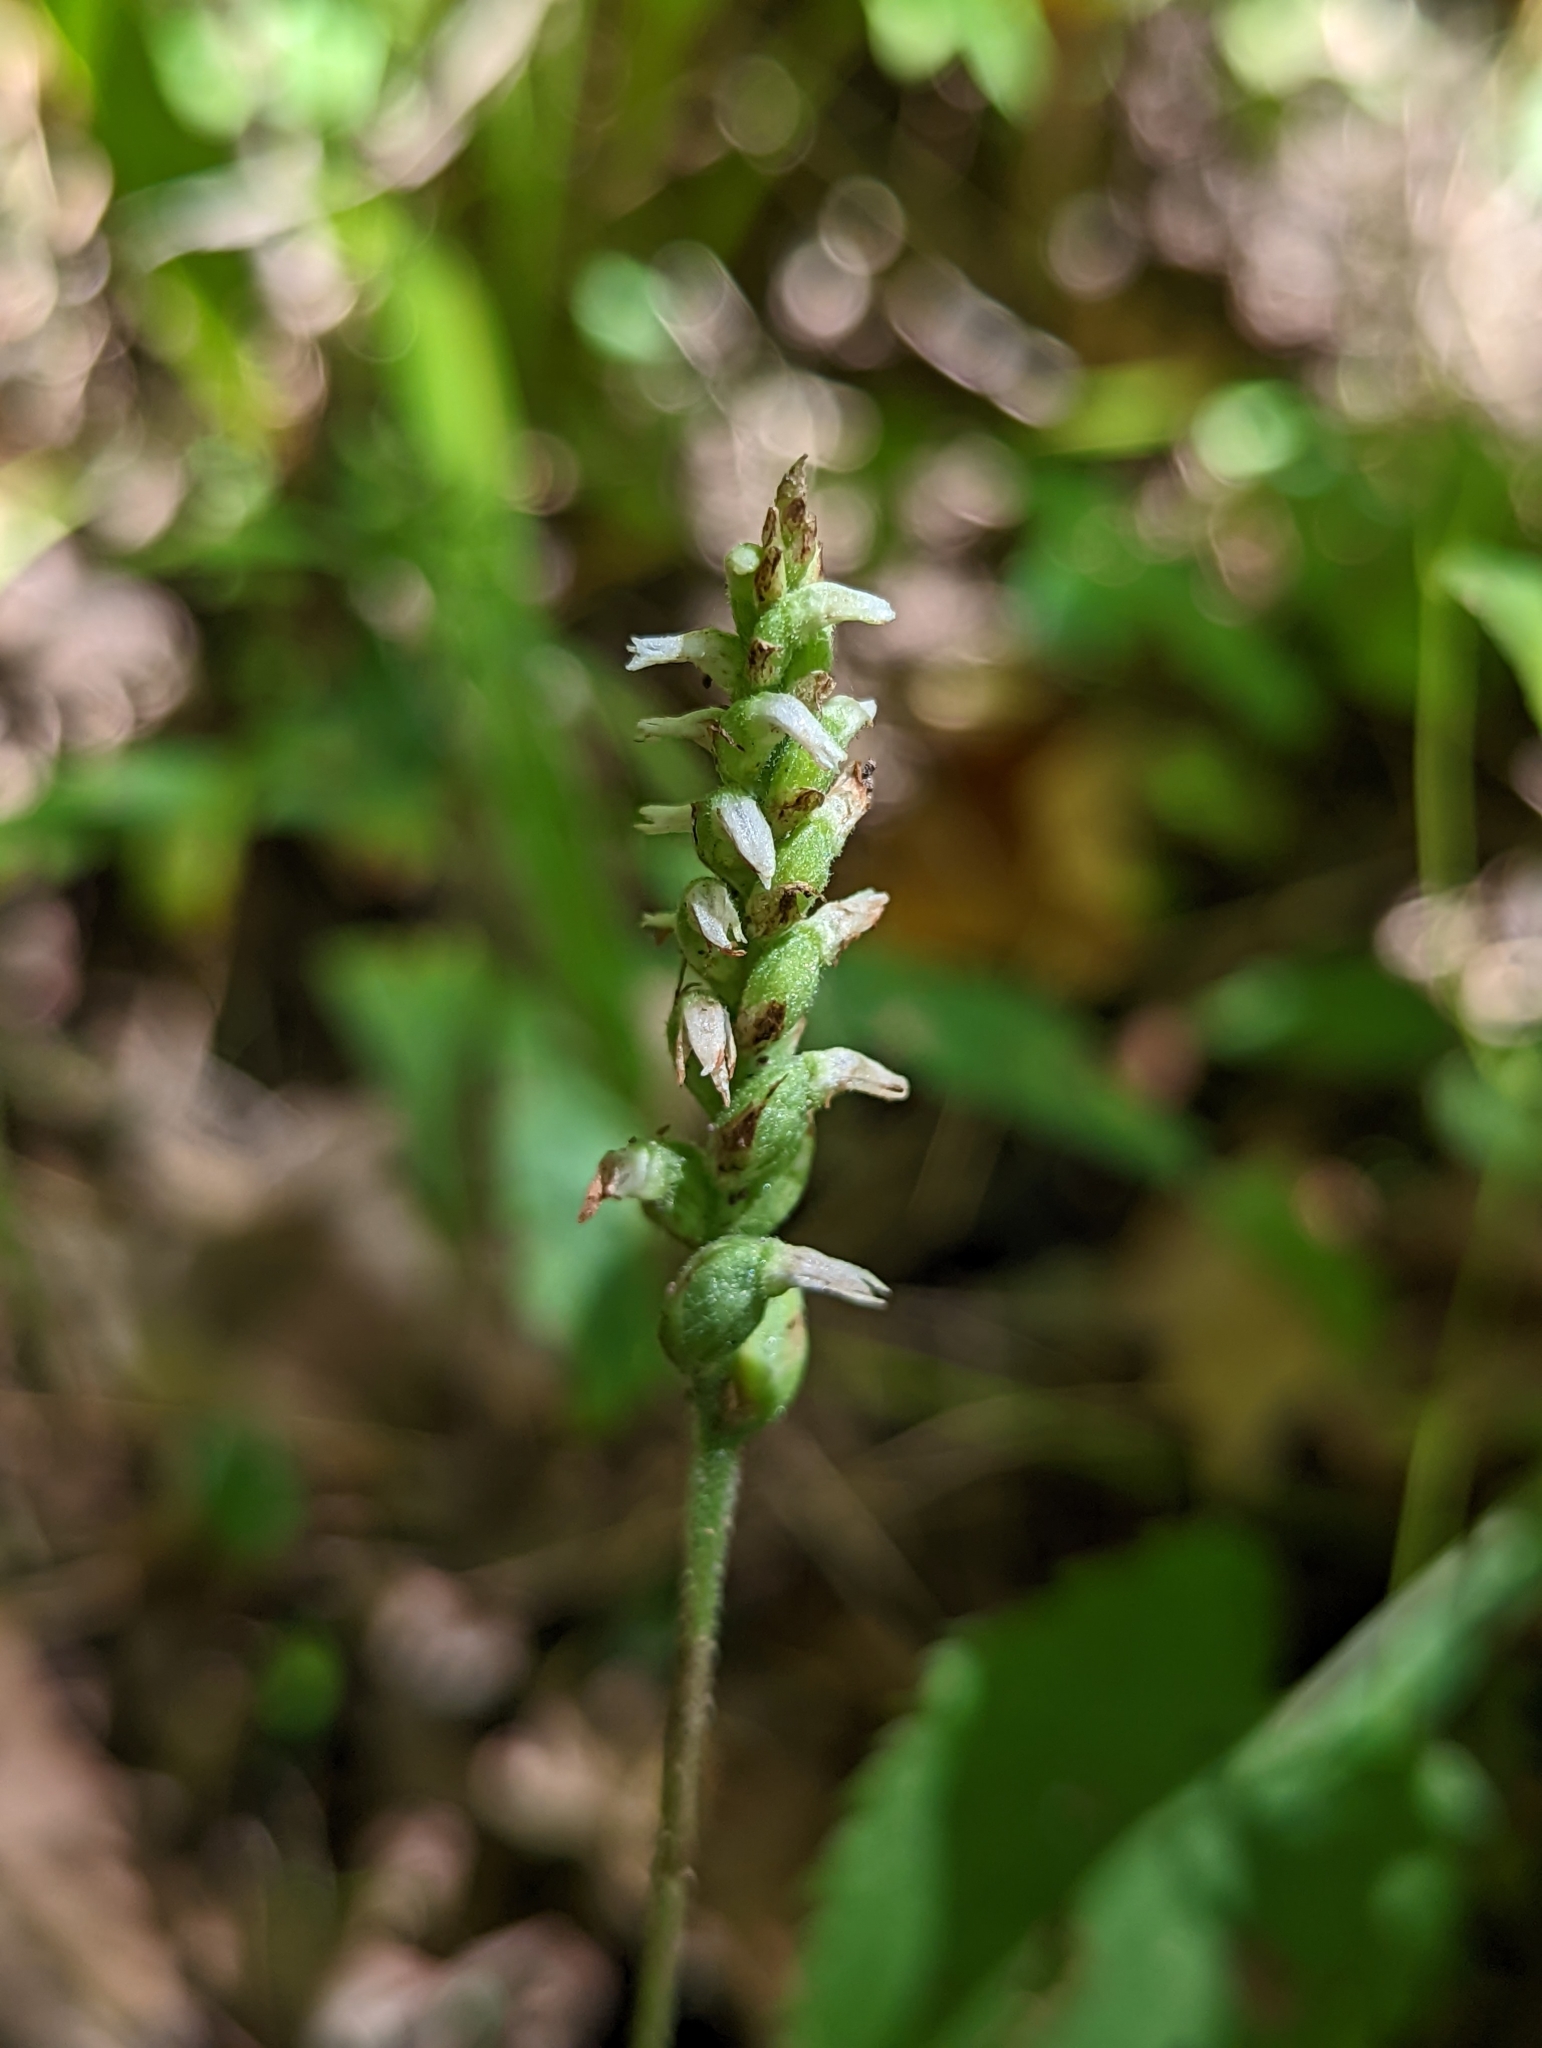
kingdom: Plantae
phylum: Tracheophyta
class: Liliopsida
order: Asparagales
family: Orchidaceae
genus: Spiranthes
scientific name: Spiranthes ovalis
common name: October ladies'-tresses
